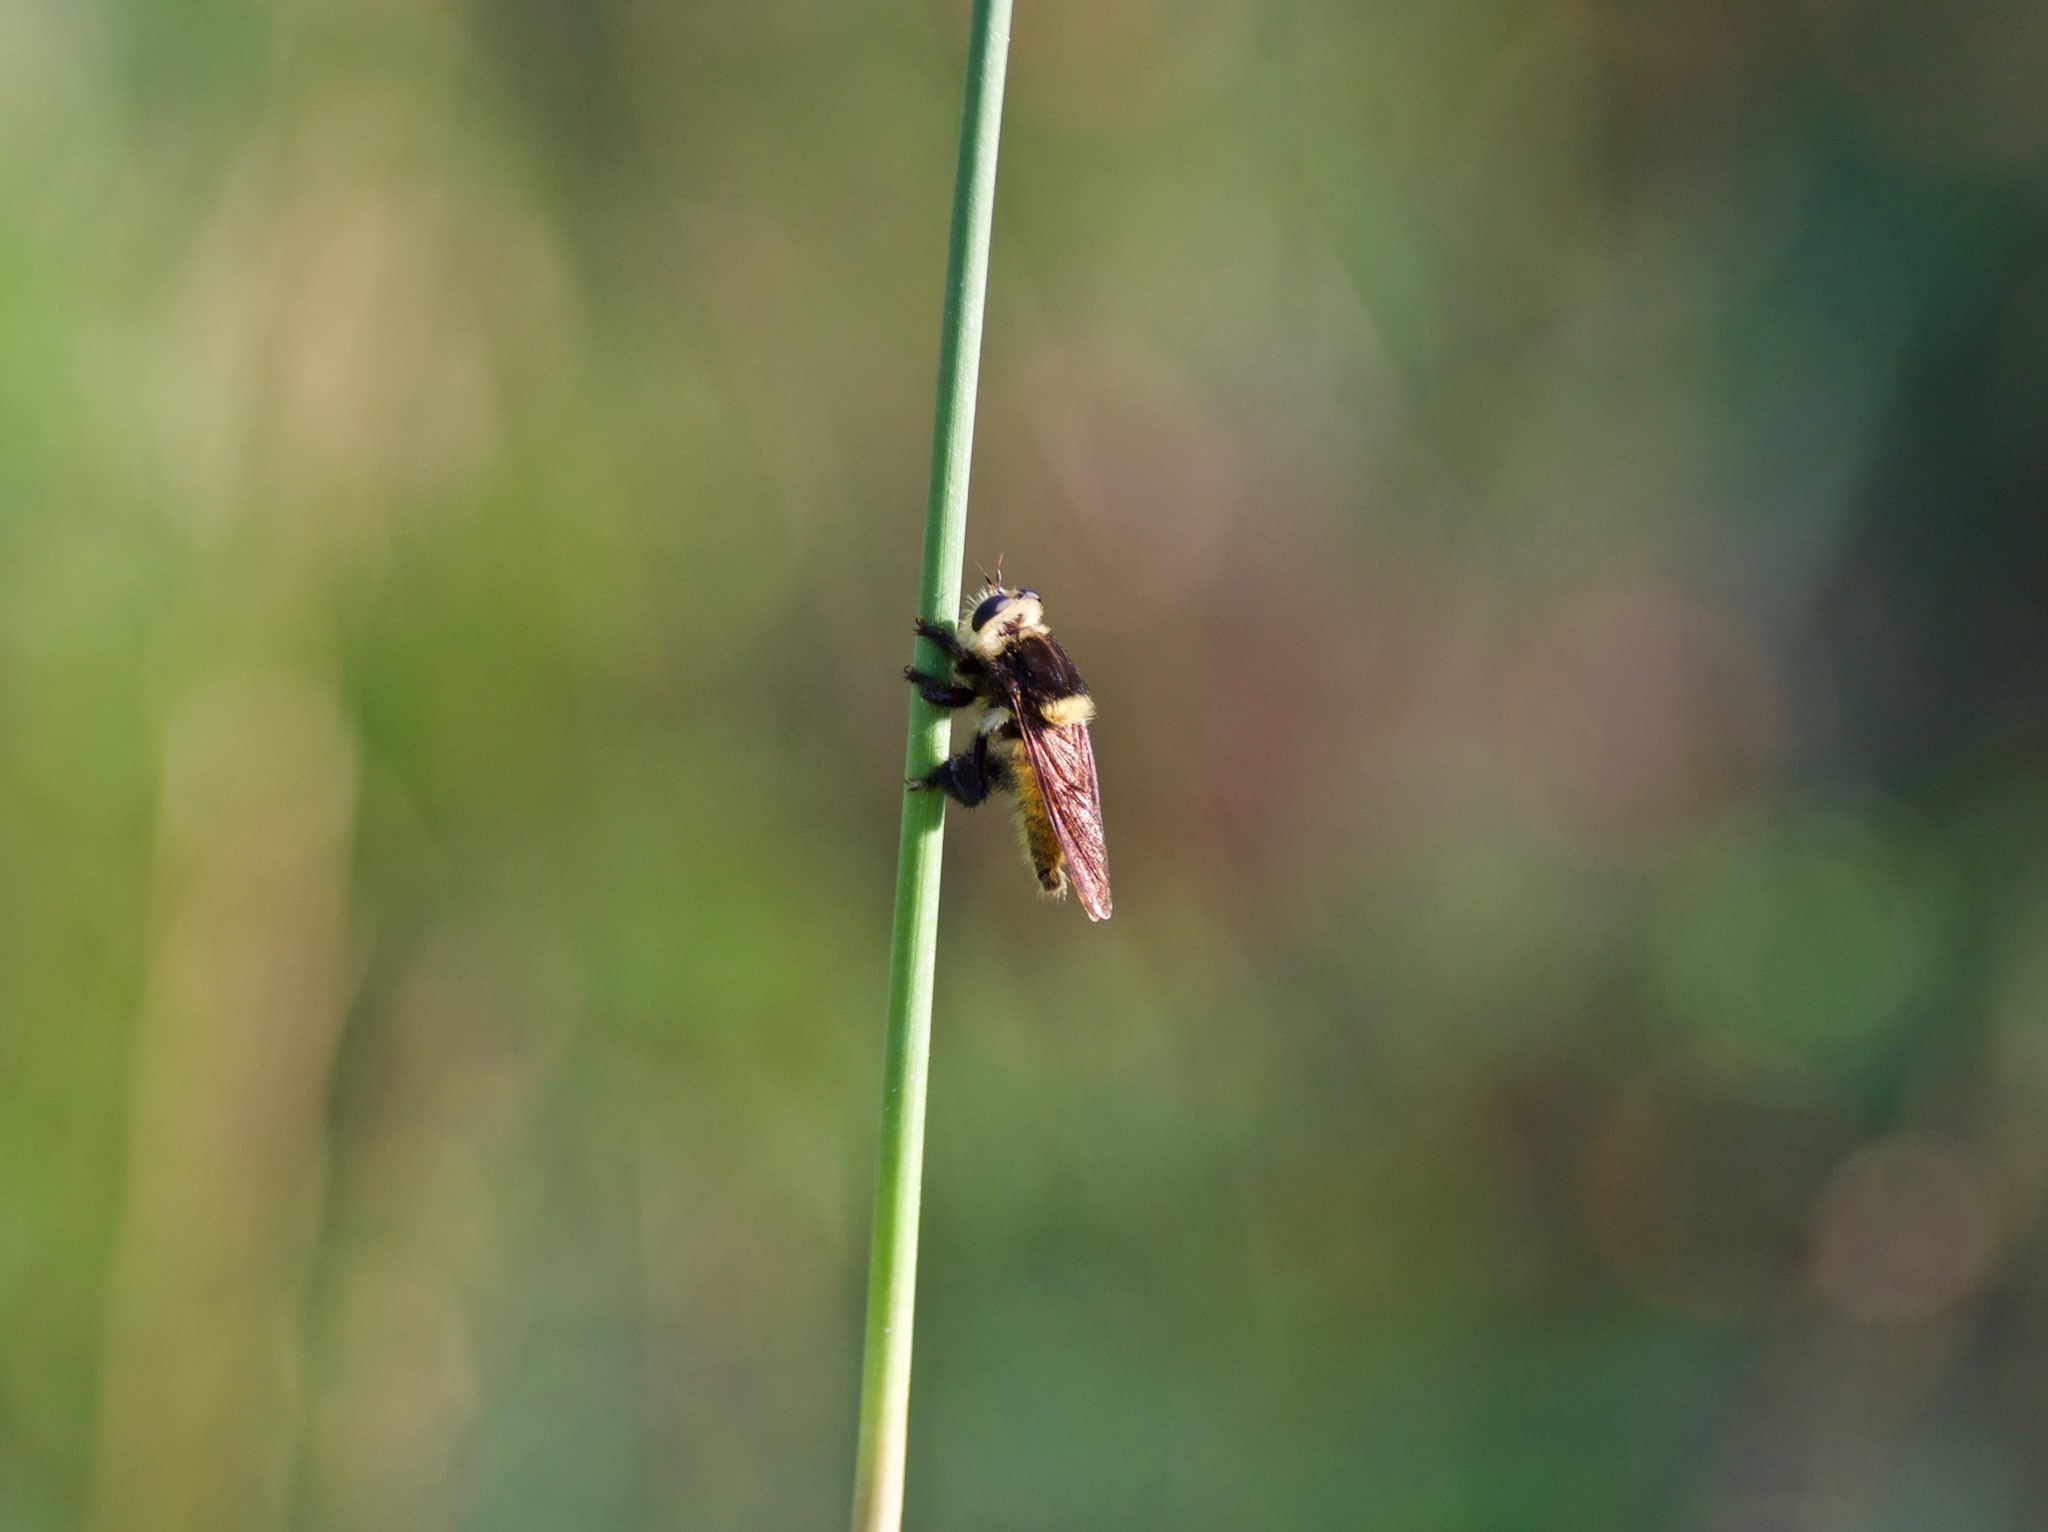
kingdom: Animalia
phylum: Arthropoda
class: Insecta
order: Diptera
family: Asilidae
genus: Mallophora
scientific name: Mallophora fautrix
